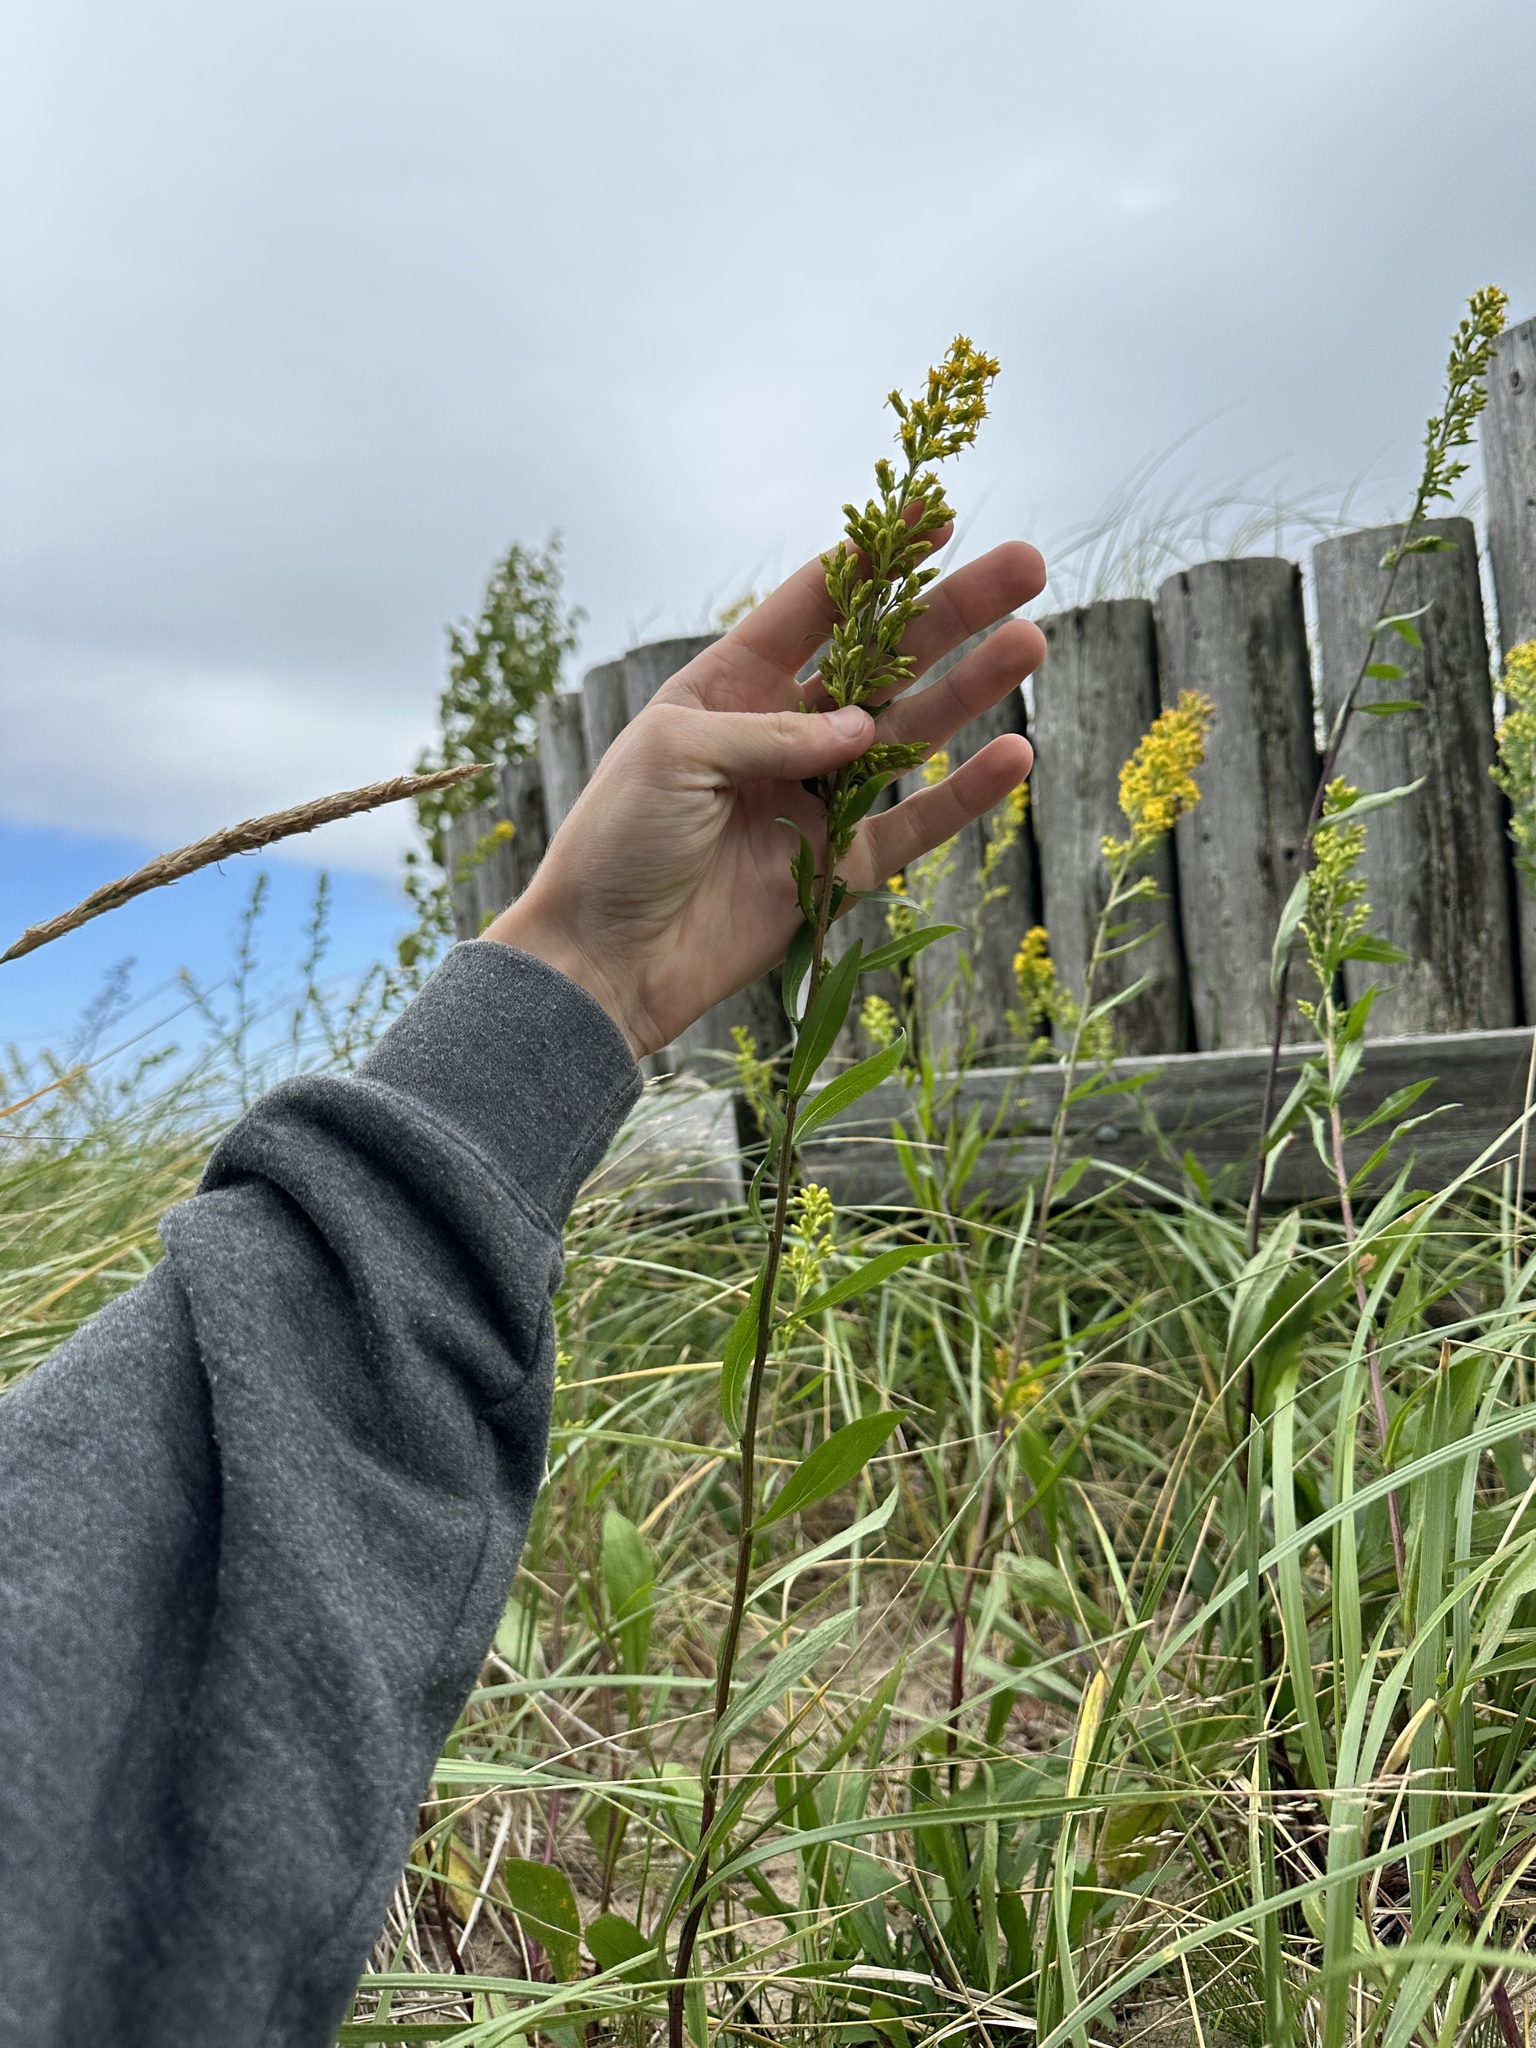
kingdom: Plantae
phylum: Tracheophyta
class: Magnoliopsida
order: Asterales
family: Asteraceae
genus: Solidago
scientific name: Solidago psammophila
